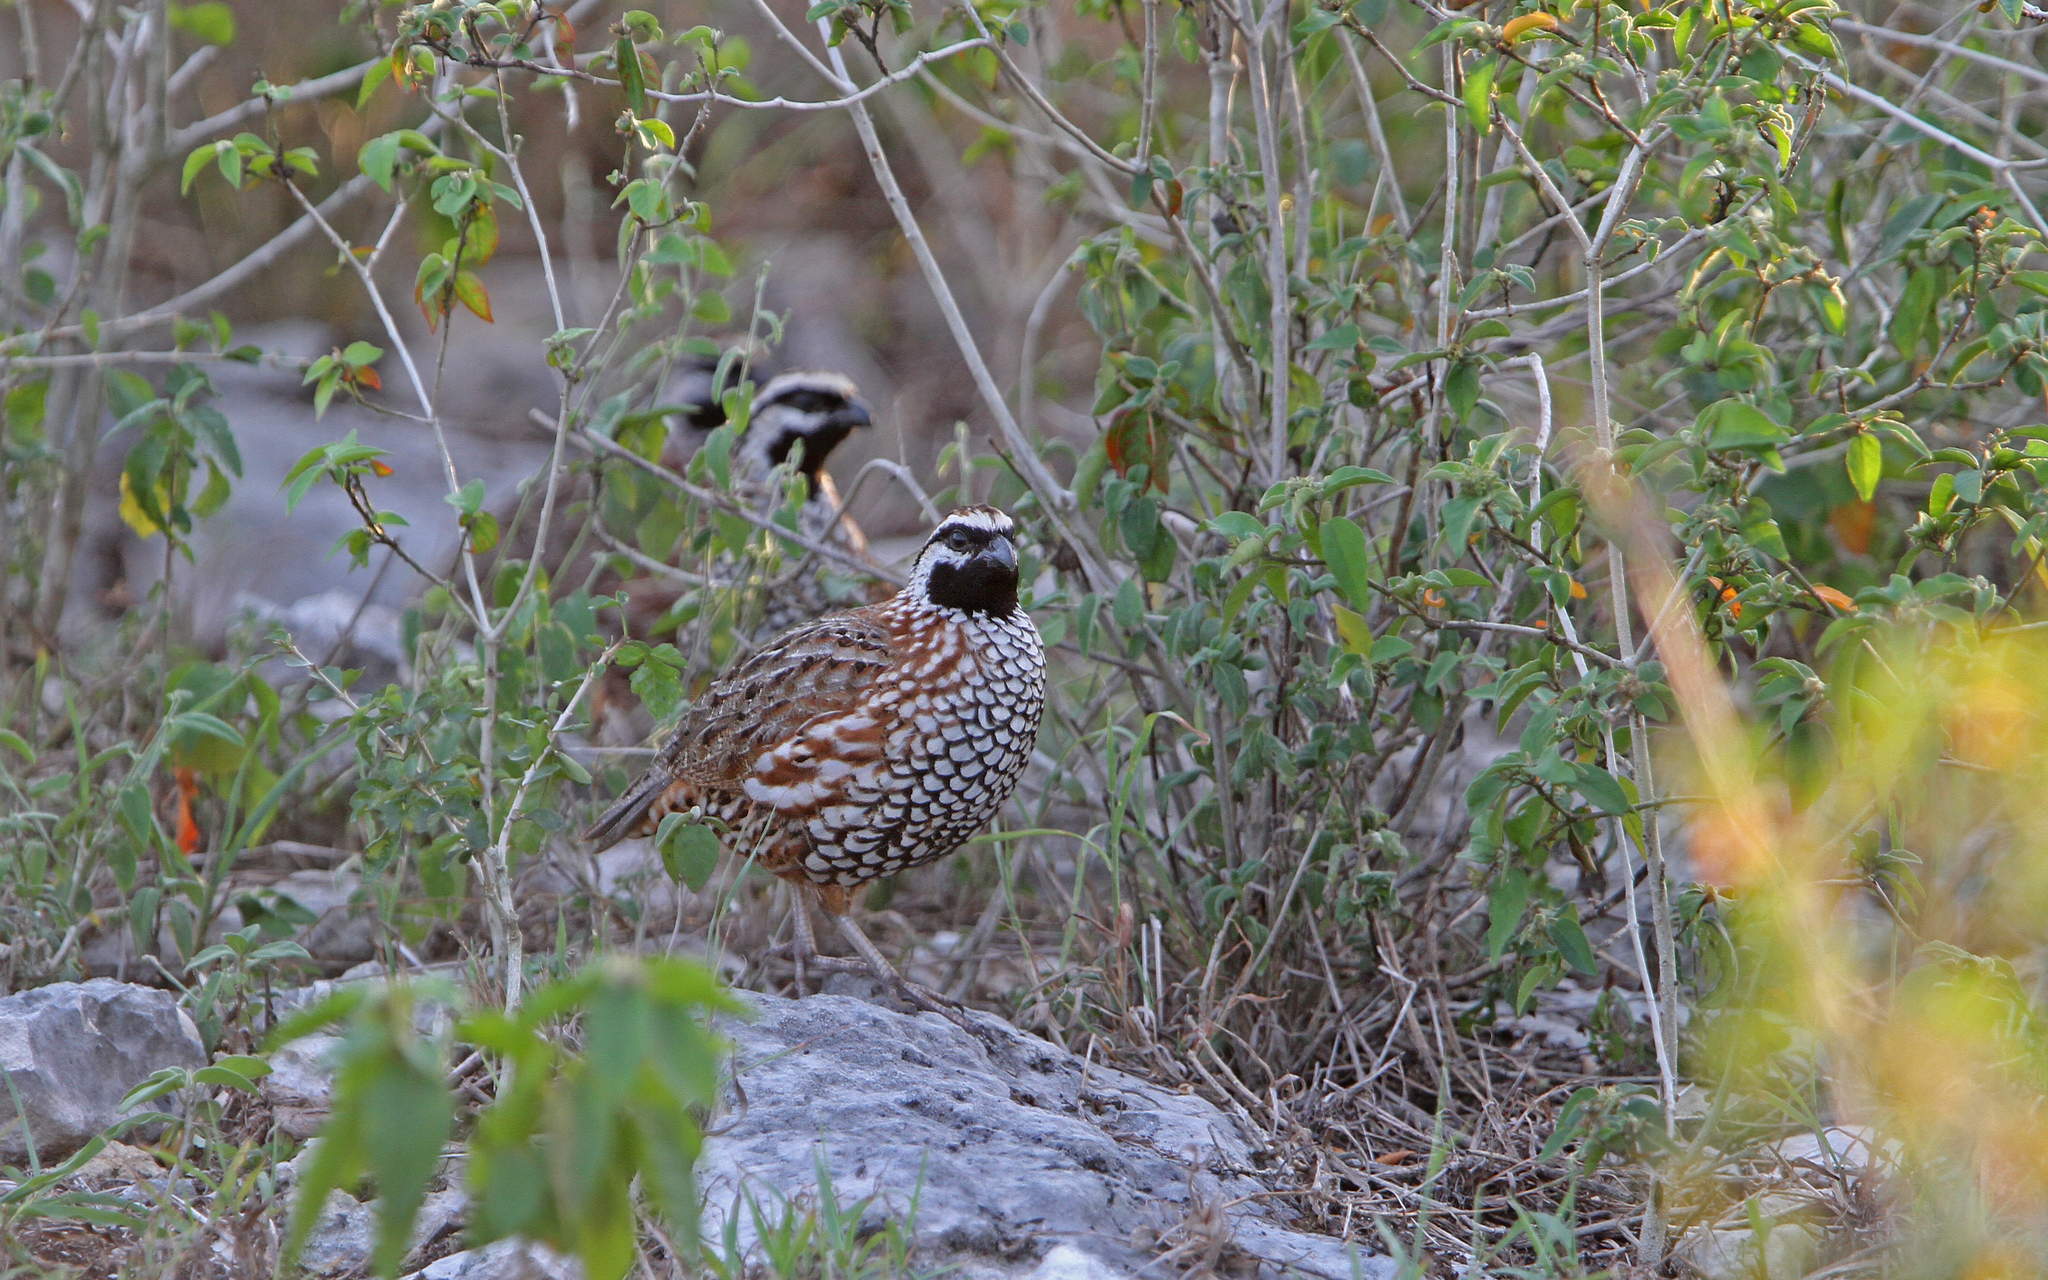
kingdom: Animalia
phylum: Chordata
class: Aves
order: Galliformes
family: Odontophoridae
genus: Colinus
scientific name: Colinus nigrogularis
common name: Yucatan bobwhite
